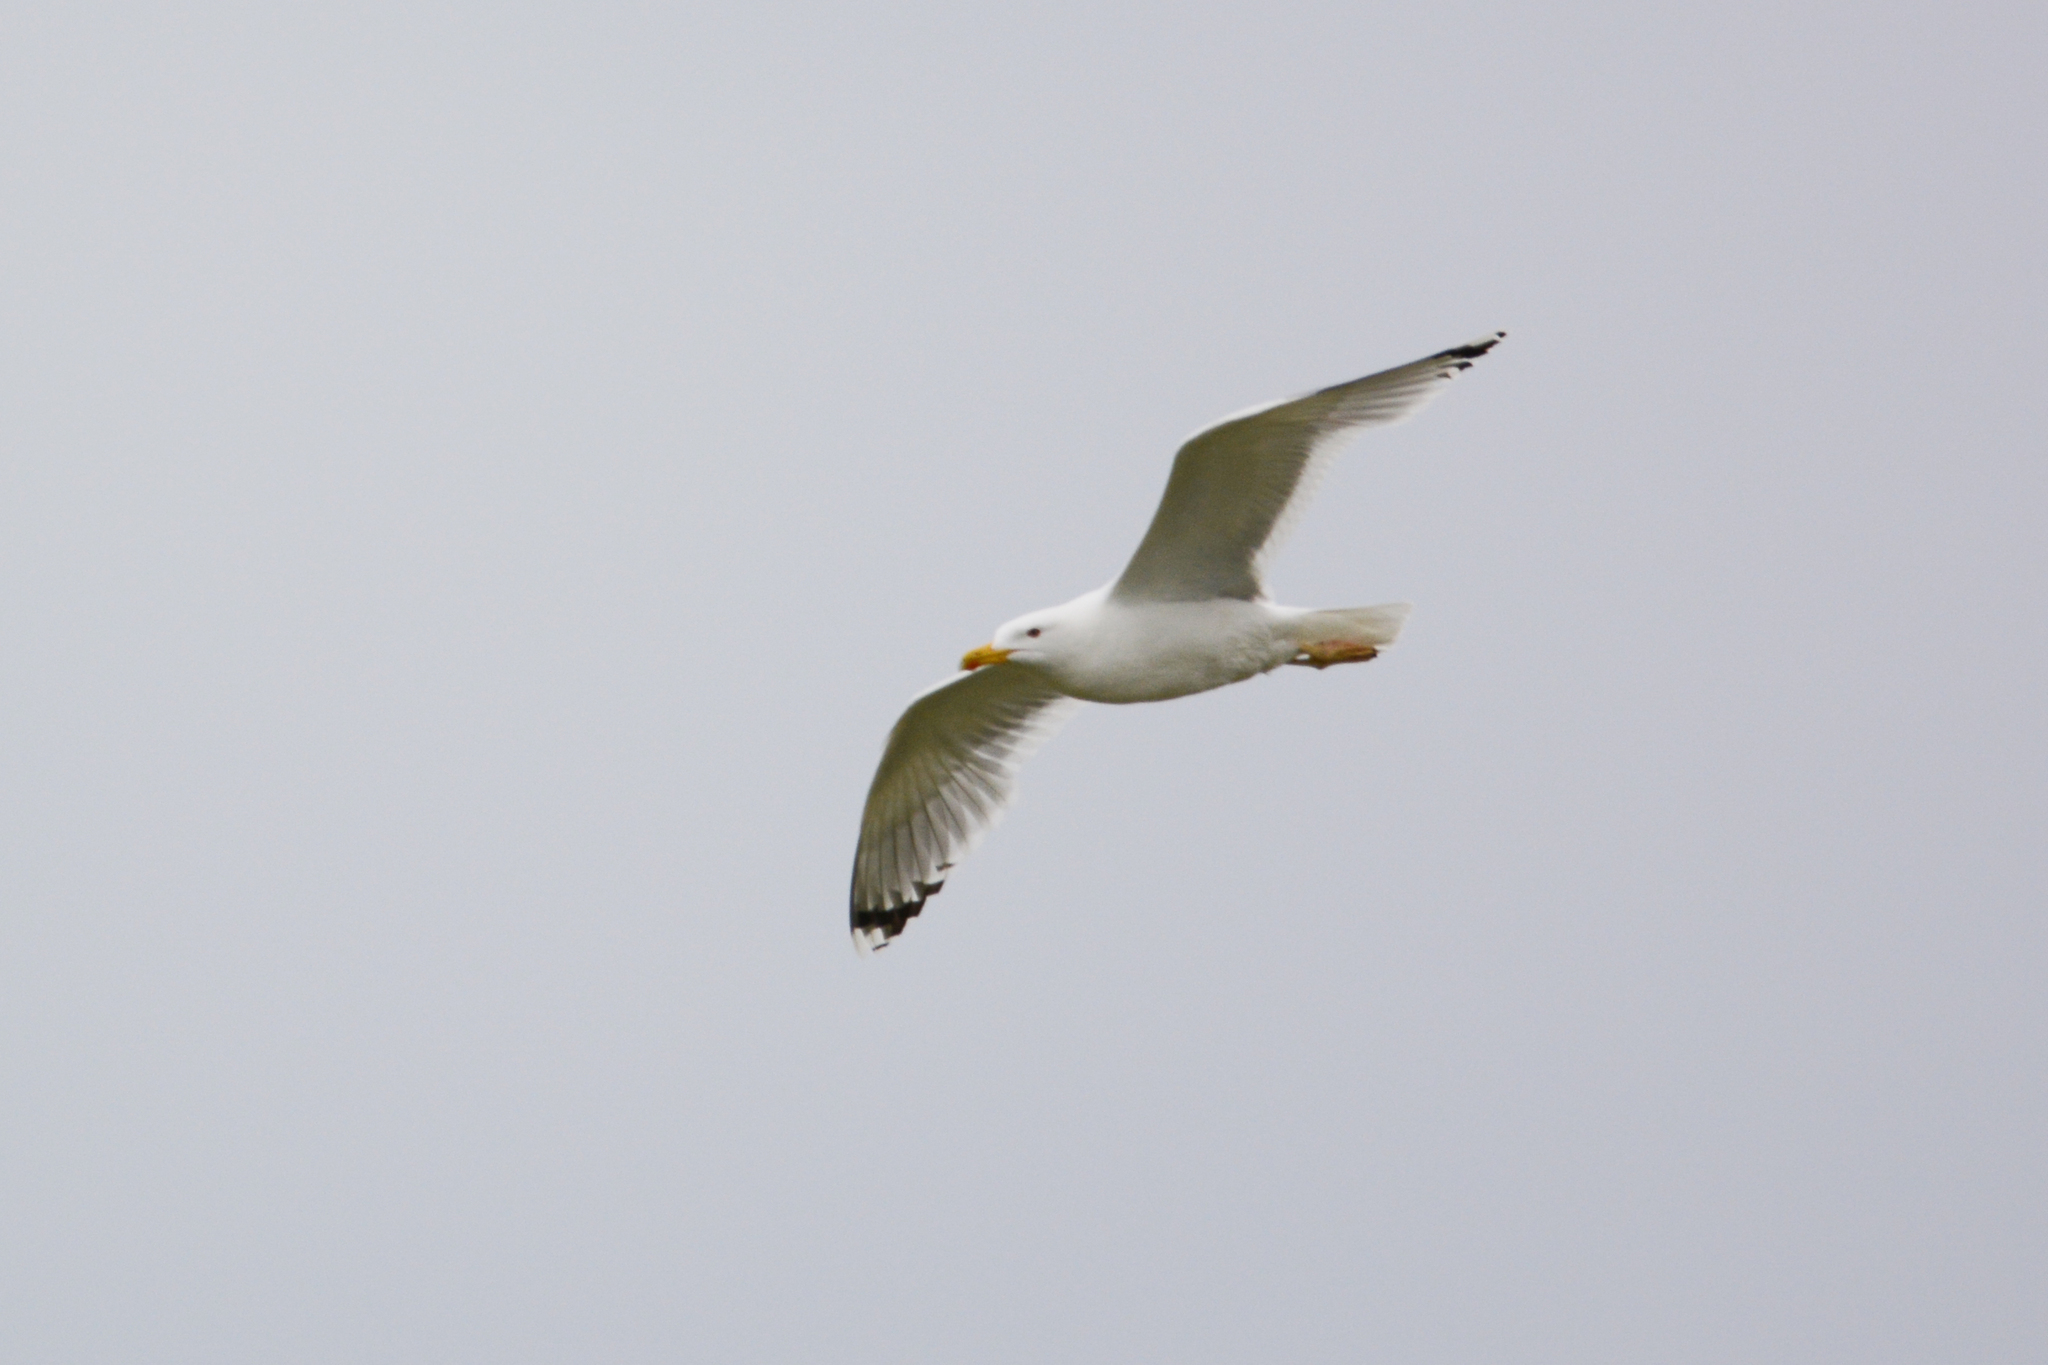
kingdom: Animalia
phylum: Chordata
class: Aves
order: Charadriiformes
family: Laridae
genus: Larus
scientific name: Larus cachinnans
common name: Caspian gull
